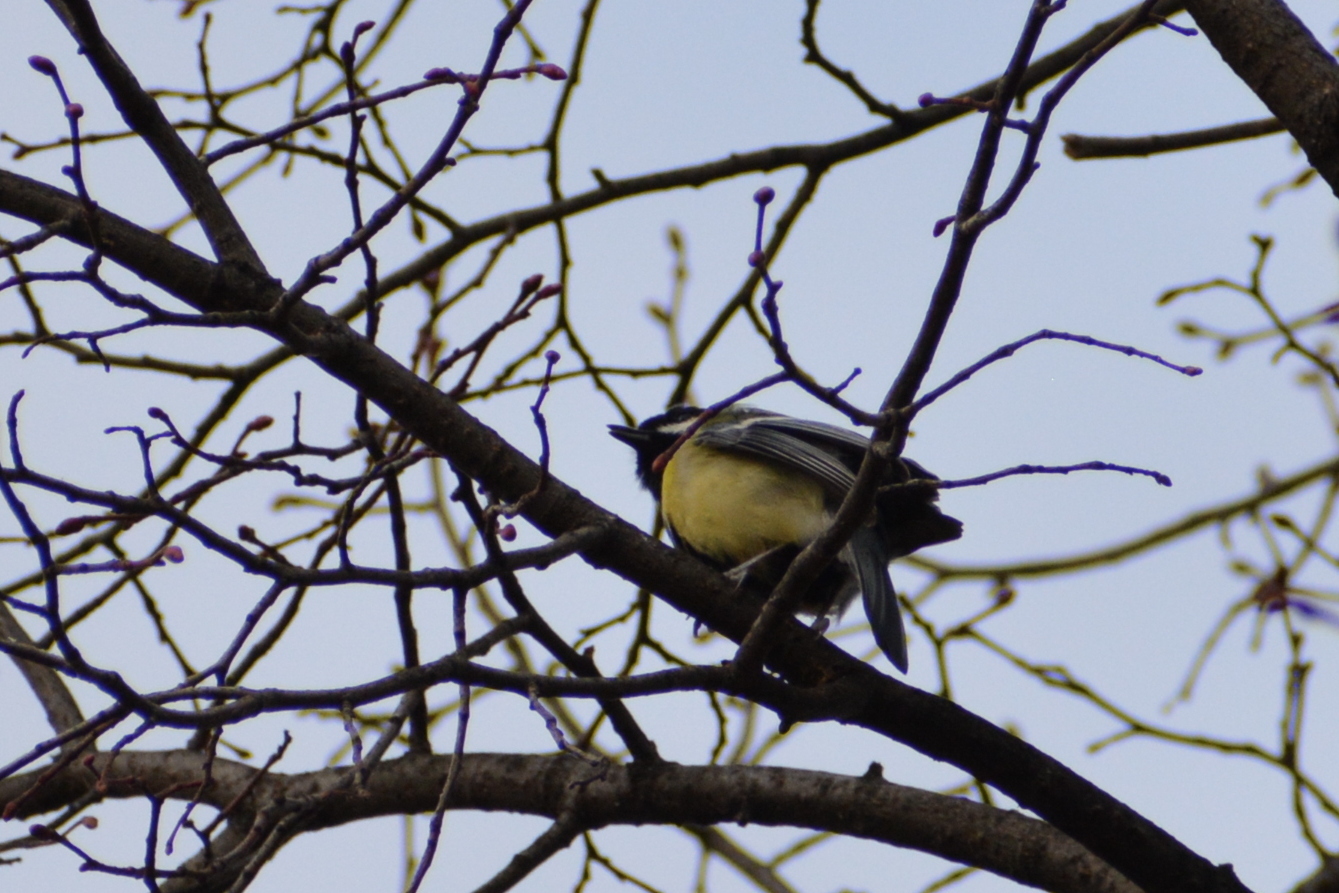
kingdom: Animalia
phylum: Chordata
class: Aves
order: Passeriformes
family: Paridae
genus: Parus
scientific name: Parus major
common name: Great tit
